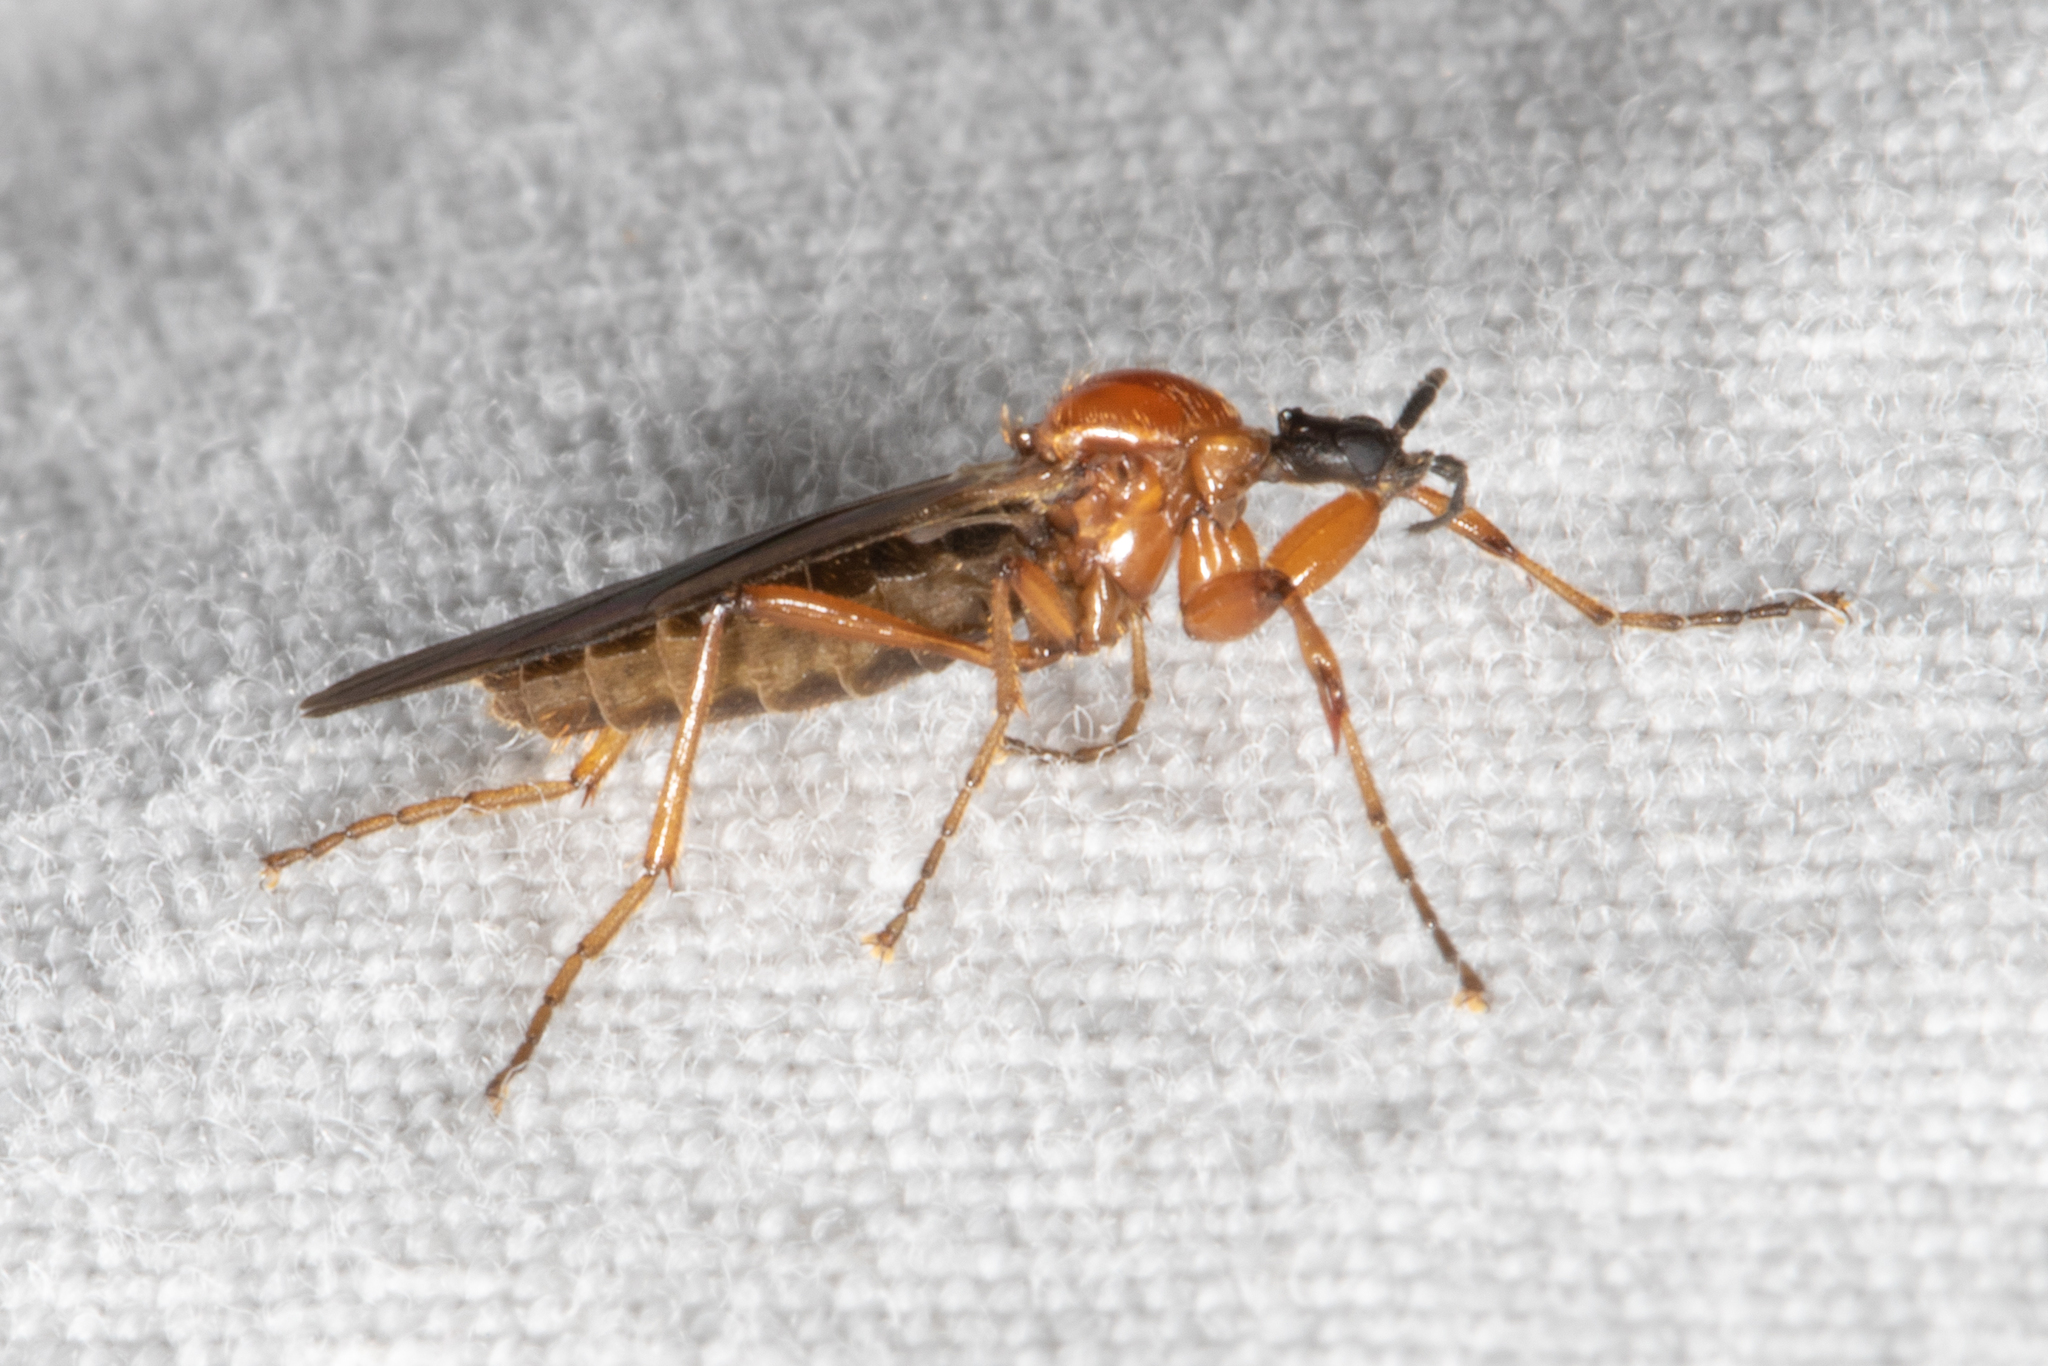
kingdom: Animalia
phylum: Arthropoda
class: Insecta
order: Diptera
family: Bibionidae
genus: Bibio
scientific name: Bibio longipes
